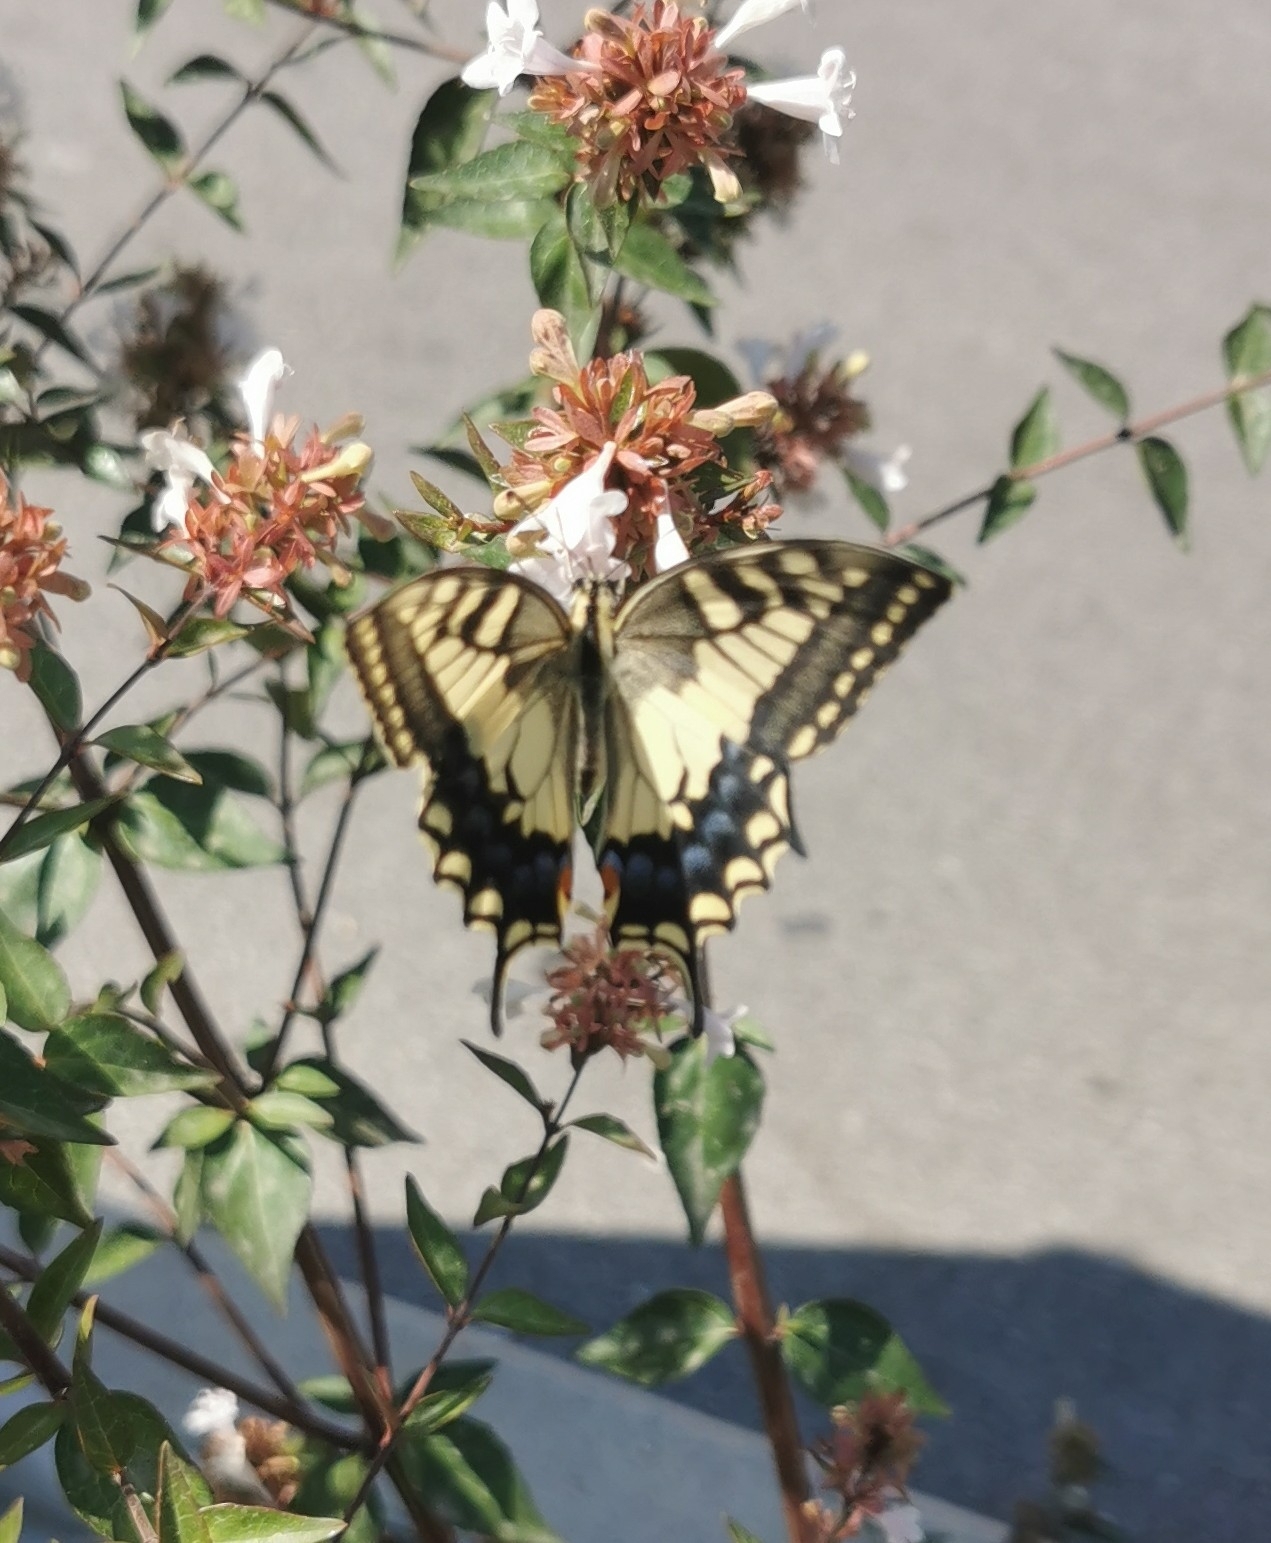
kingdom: Animalia
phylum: Arthropoda
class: Insecta
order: Lepidoptera
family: Papilionidae
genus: Papilio
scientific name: Papilio machaon
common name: Swallowtail
